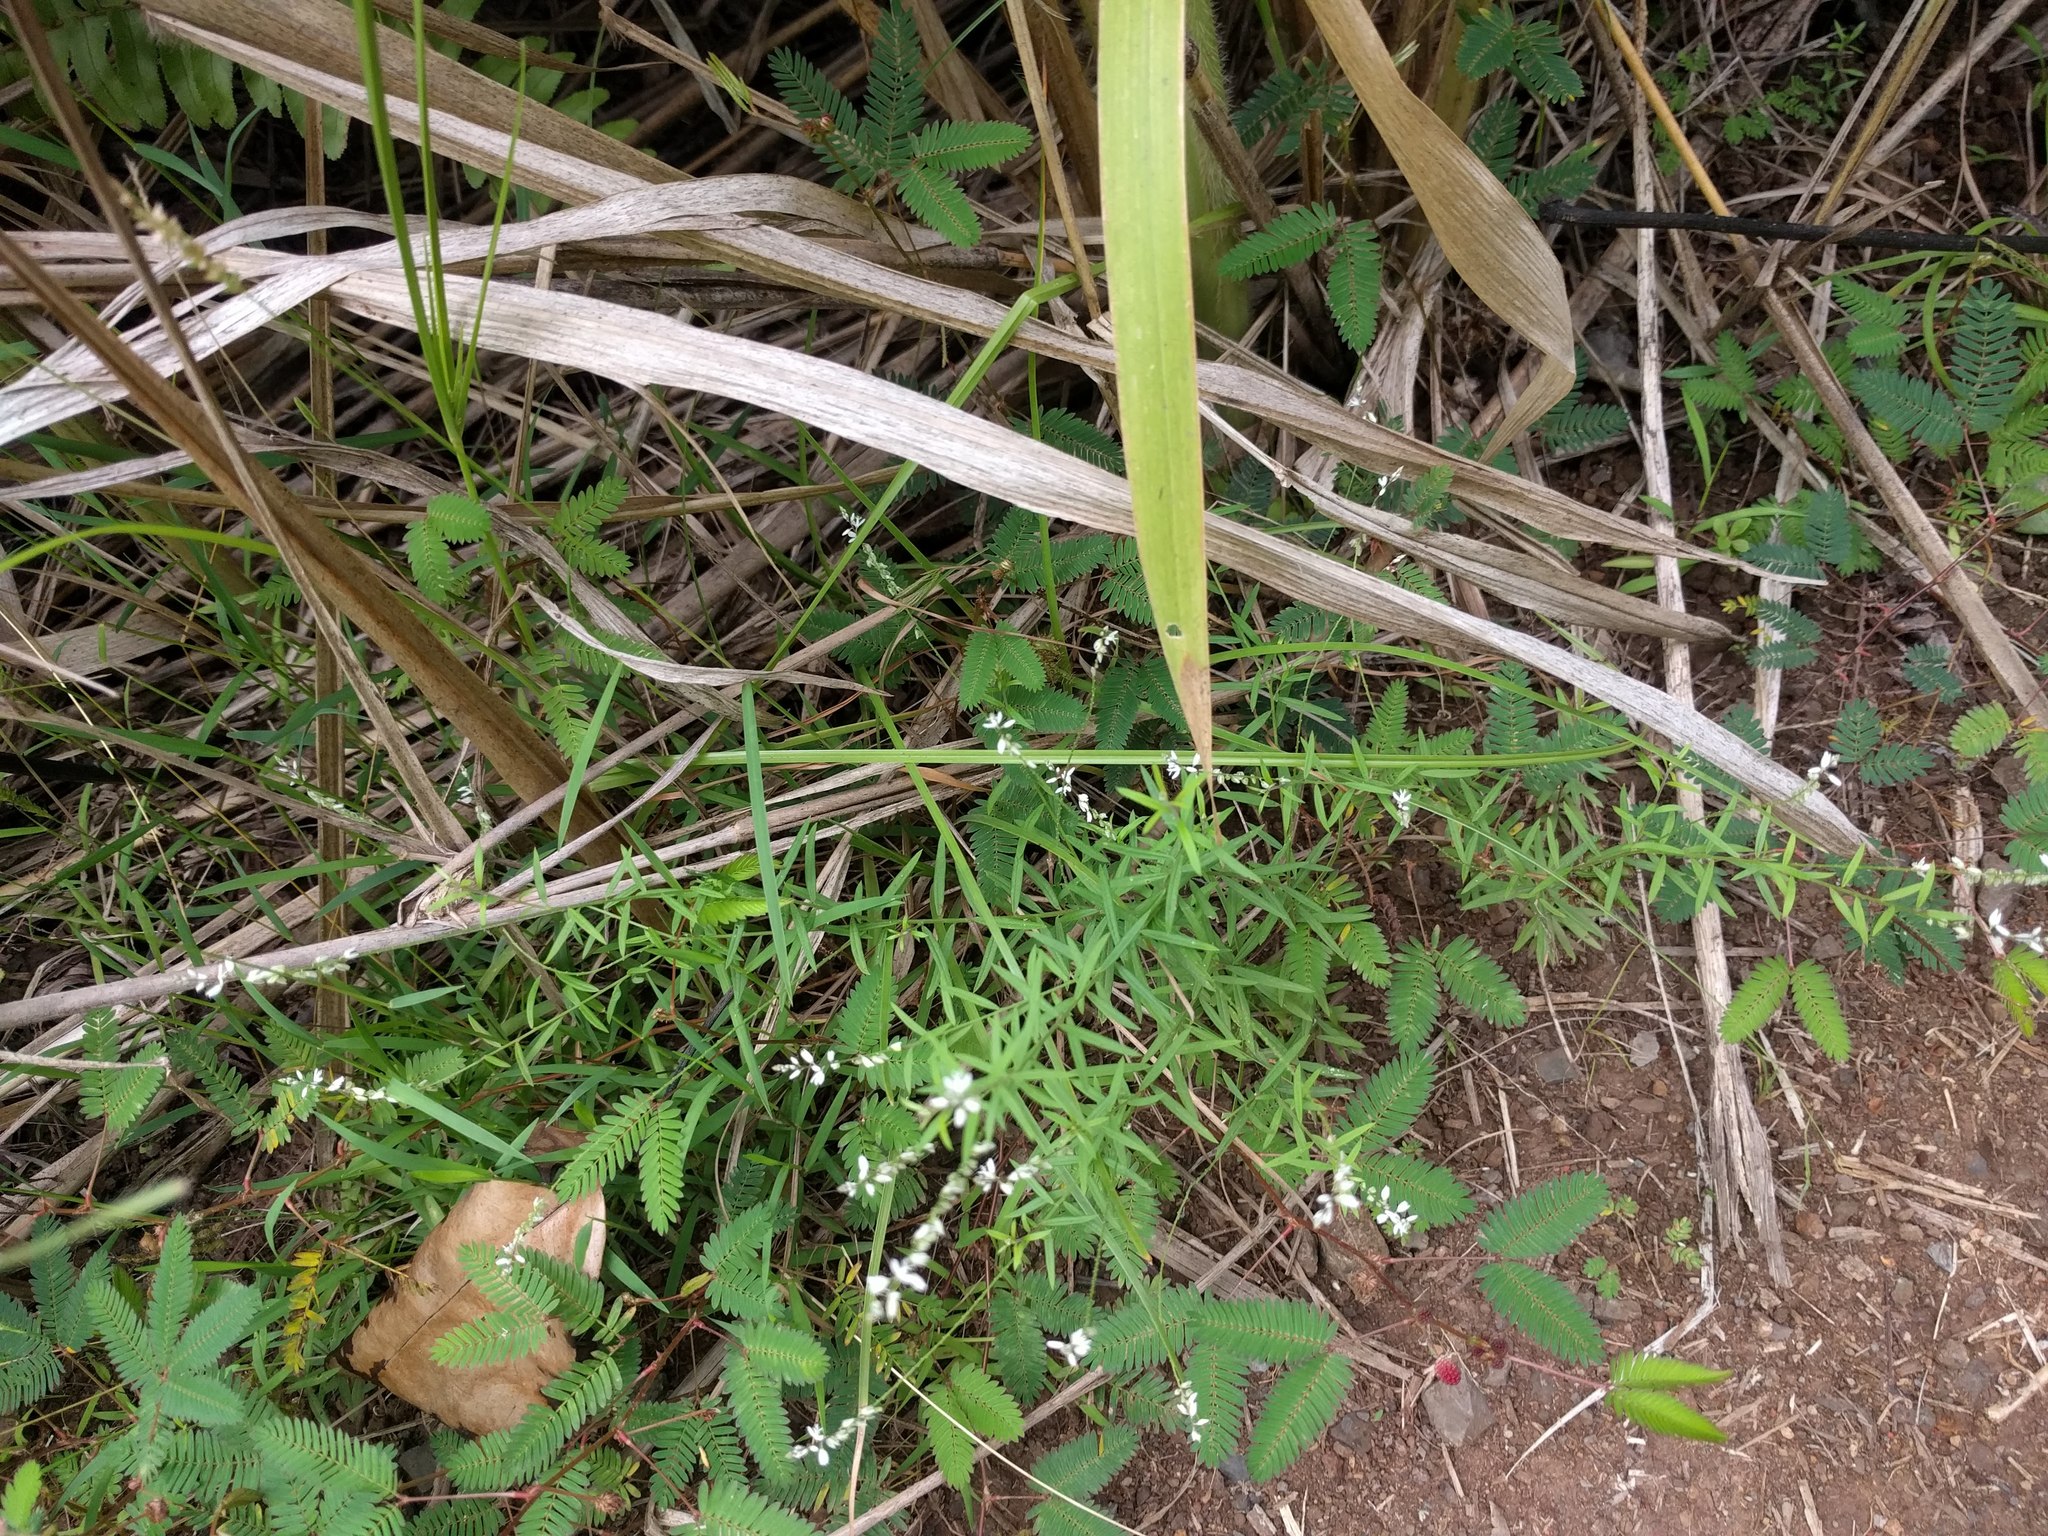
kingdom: Plantae
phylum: Tracheophyta
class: Magnoliopsida
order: Fabales
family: Polygalaceae
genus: Polygala
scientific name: Polygala paniculata
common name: Orosne
